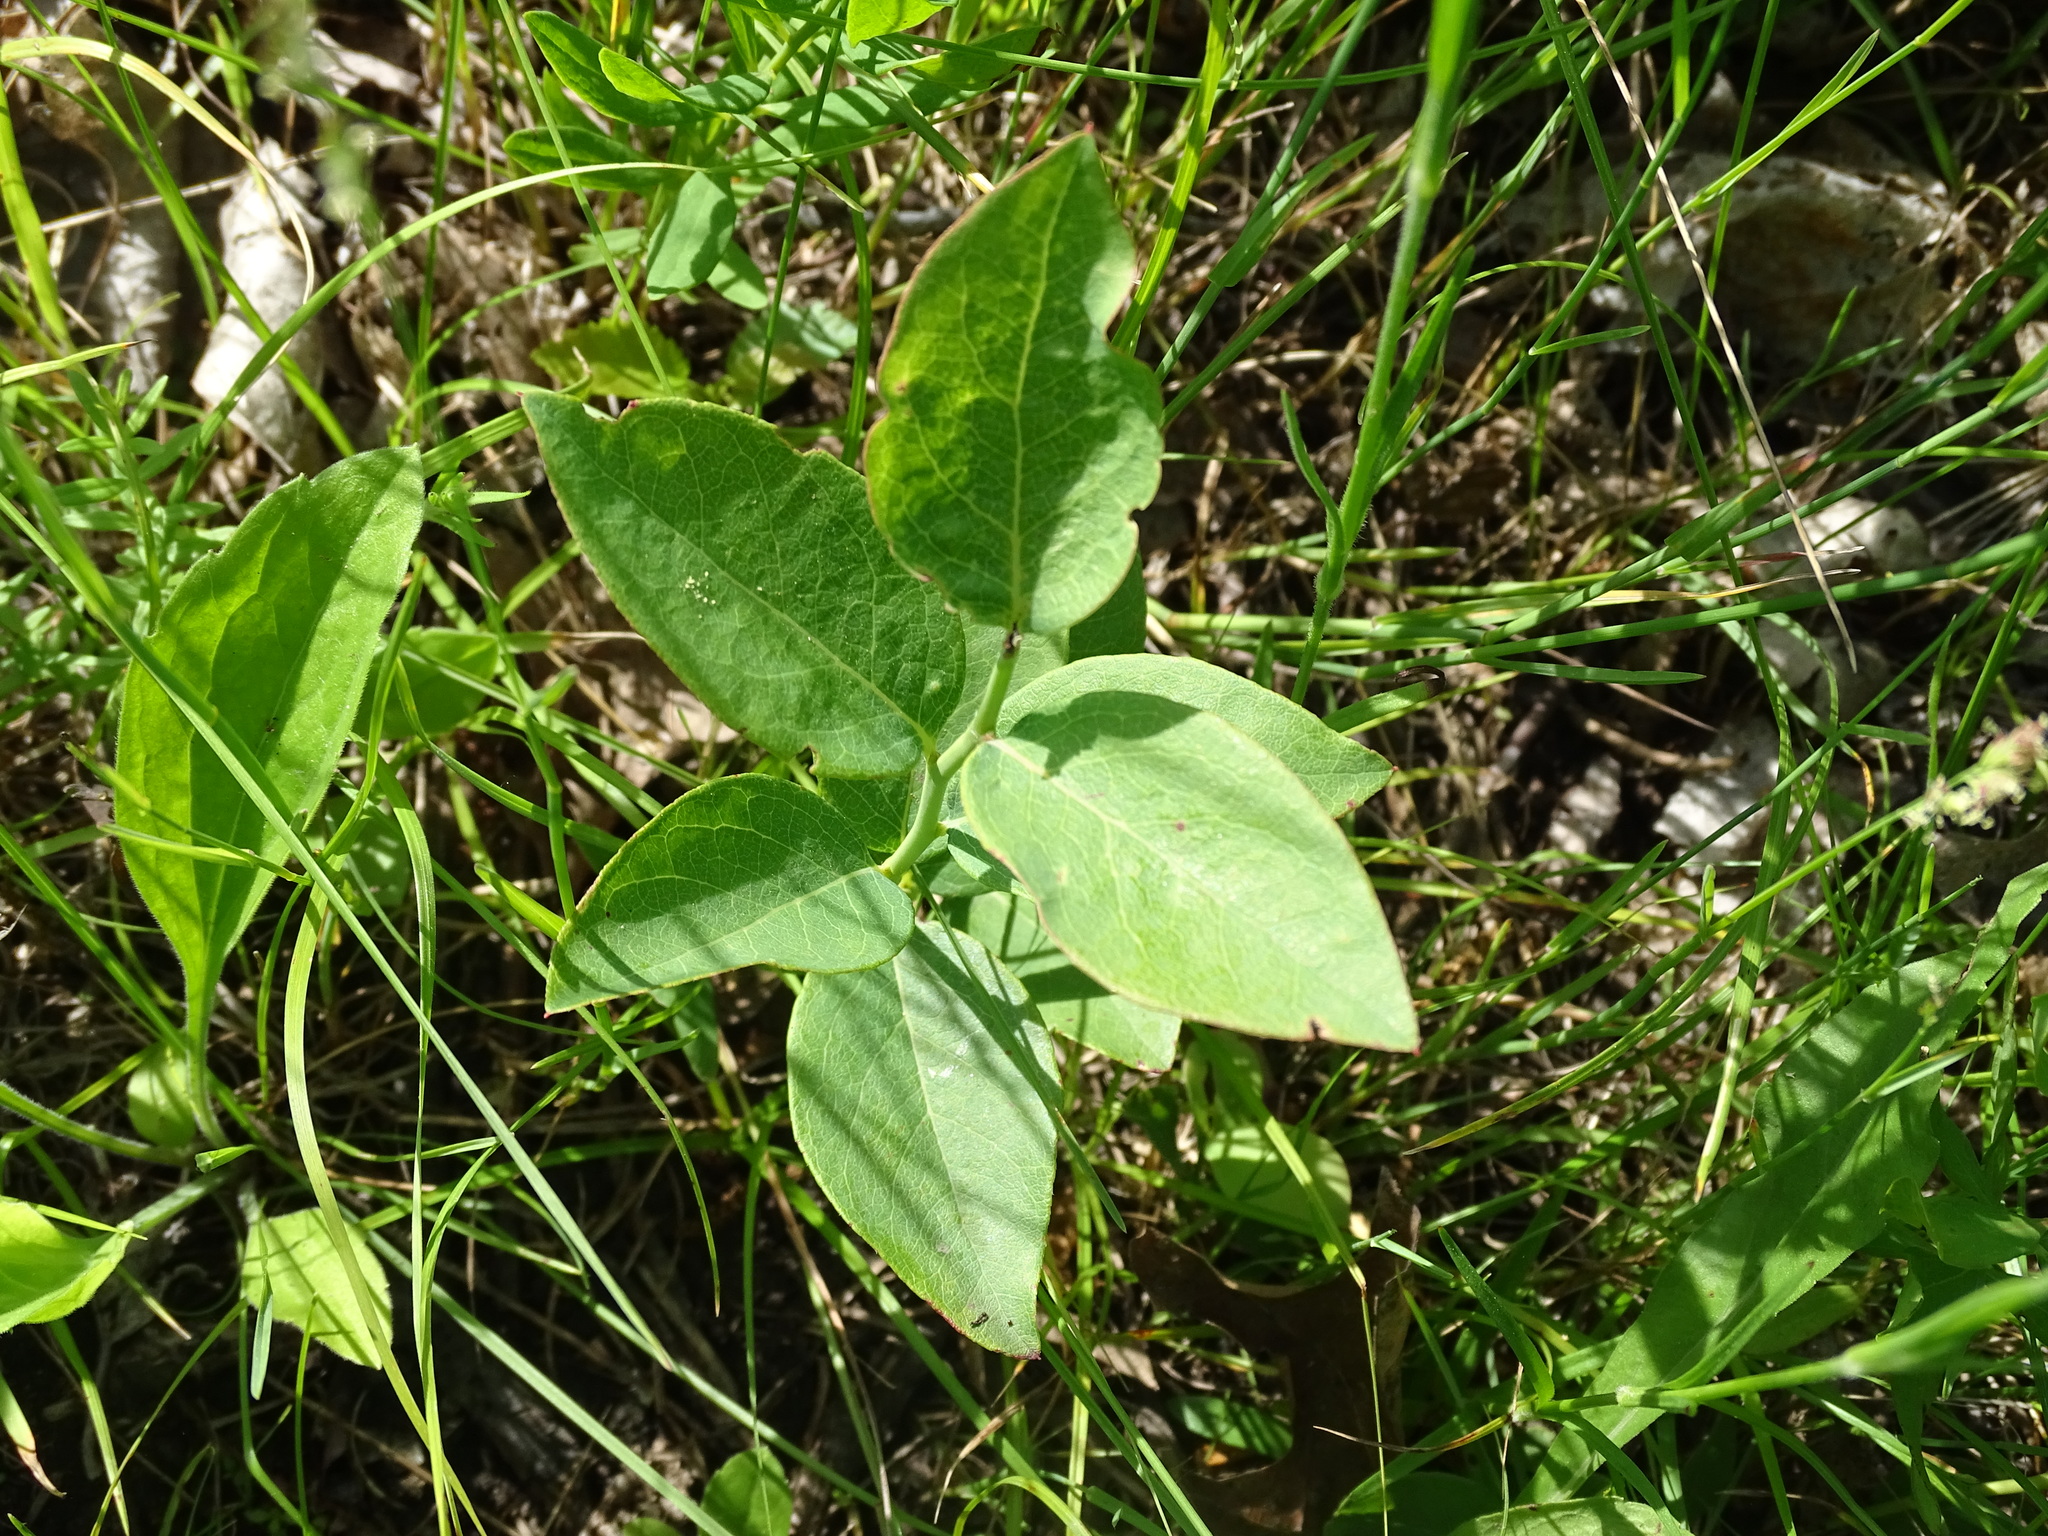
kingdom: Plantae
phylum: Tracheophyta
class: Magnoliopsida
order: Ericales
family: Ericaceae
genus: Vaccinium
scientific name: Vaccinium pallidum
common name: Blue ridge blueberry
